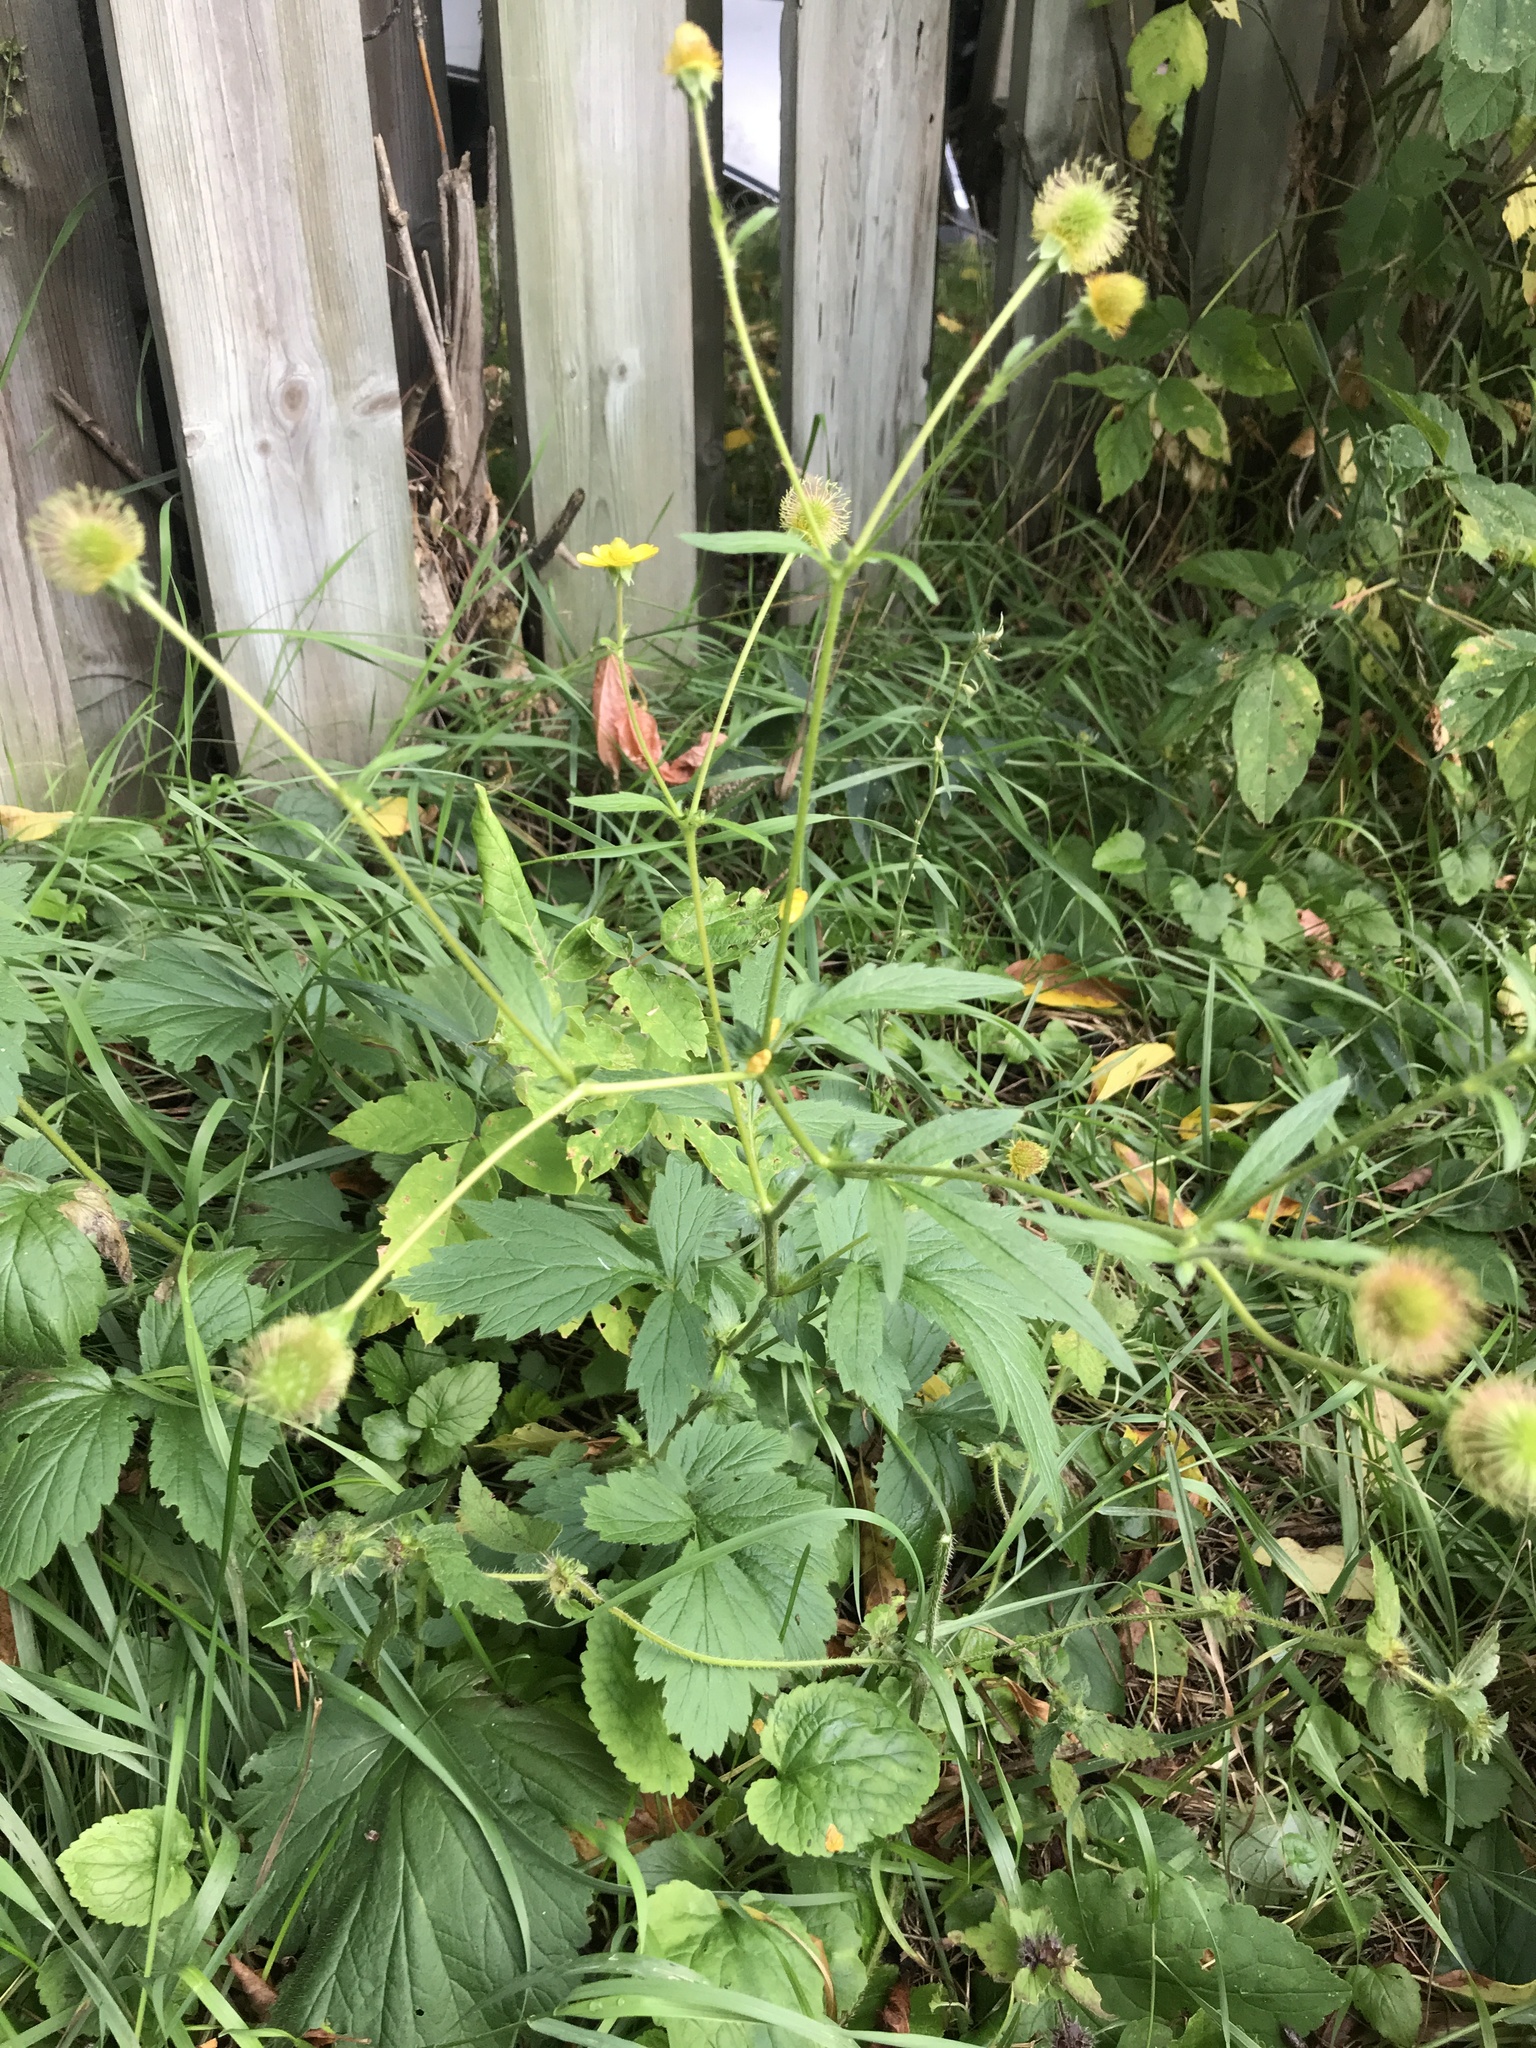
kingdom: Plantae
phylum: Tracheophyta
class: Magnoliopsida
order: Rosales
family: Rosaceae
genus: Geum
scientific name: Geum aleppicum
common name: Yellow avens
